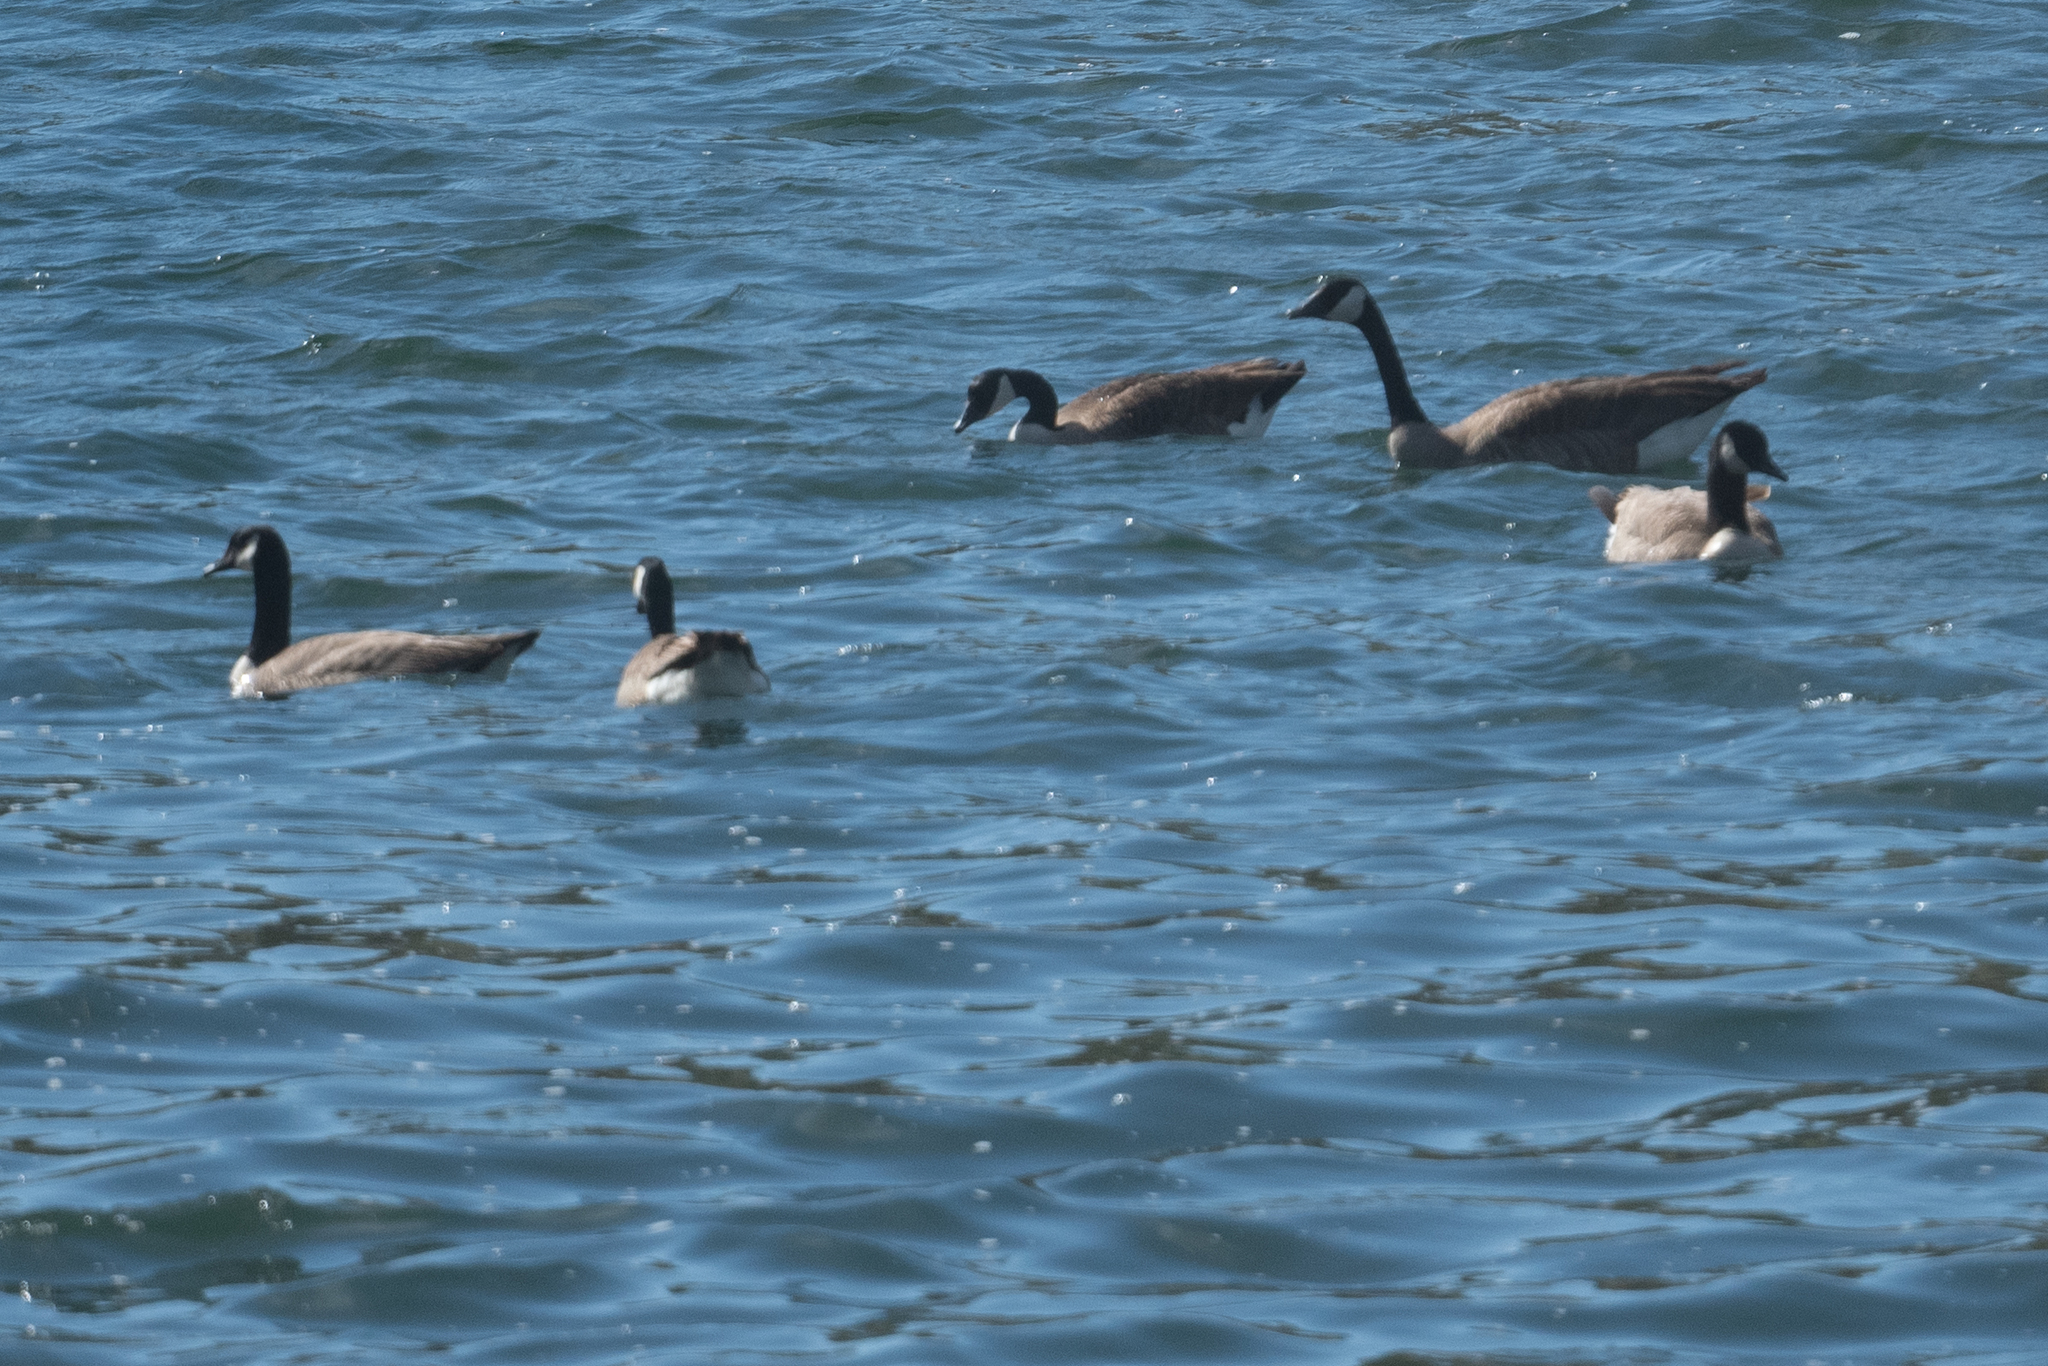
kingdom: Animalia
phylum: Chordata
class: Aves
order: Anseriformes
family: Anatidae
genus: Branta
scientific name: Branta canadensis
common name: Canada goose
